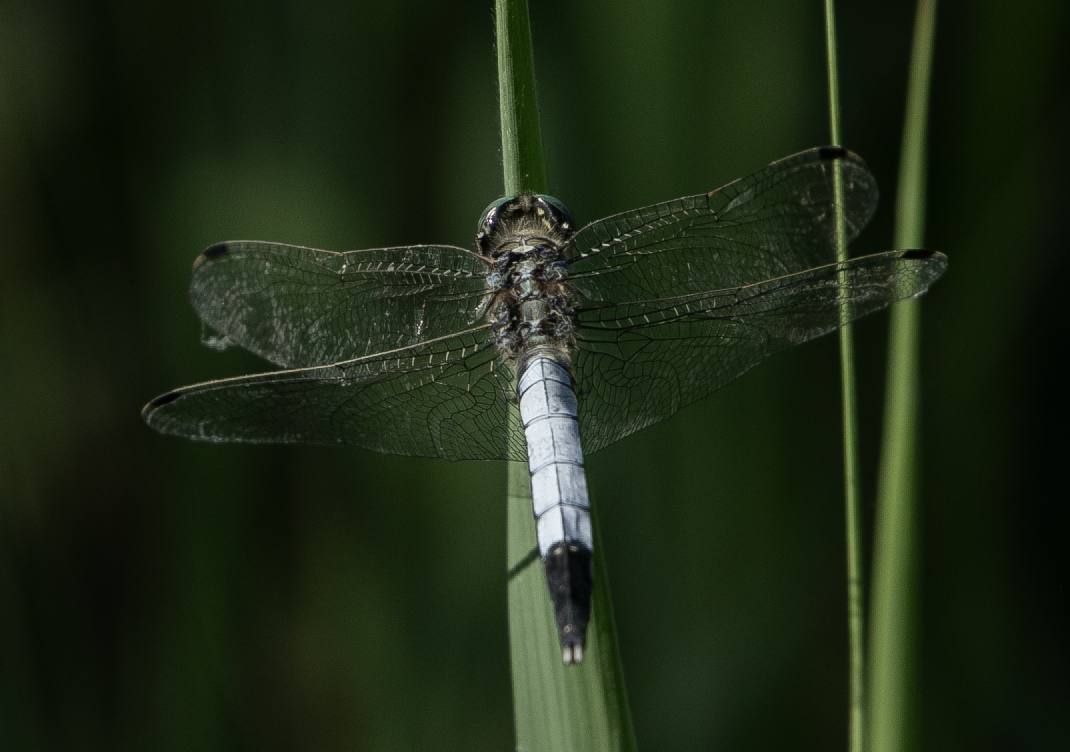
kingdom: Animalia
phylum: Arthropoda
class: Insecta
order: Odonata
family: Libellulidae
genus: Orthetrum
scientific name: Orthetrum albistylum
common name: White-tailed skimmer
